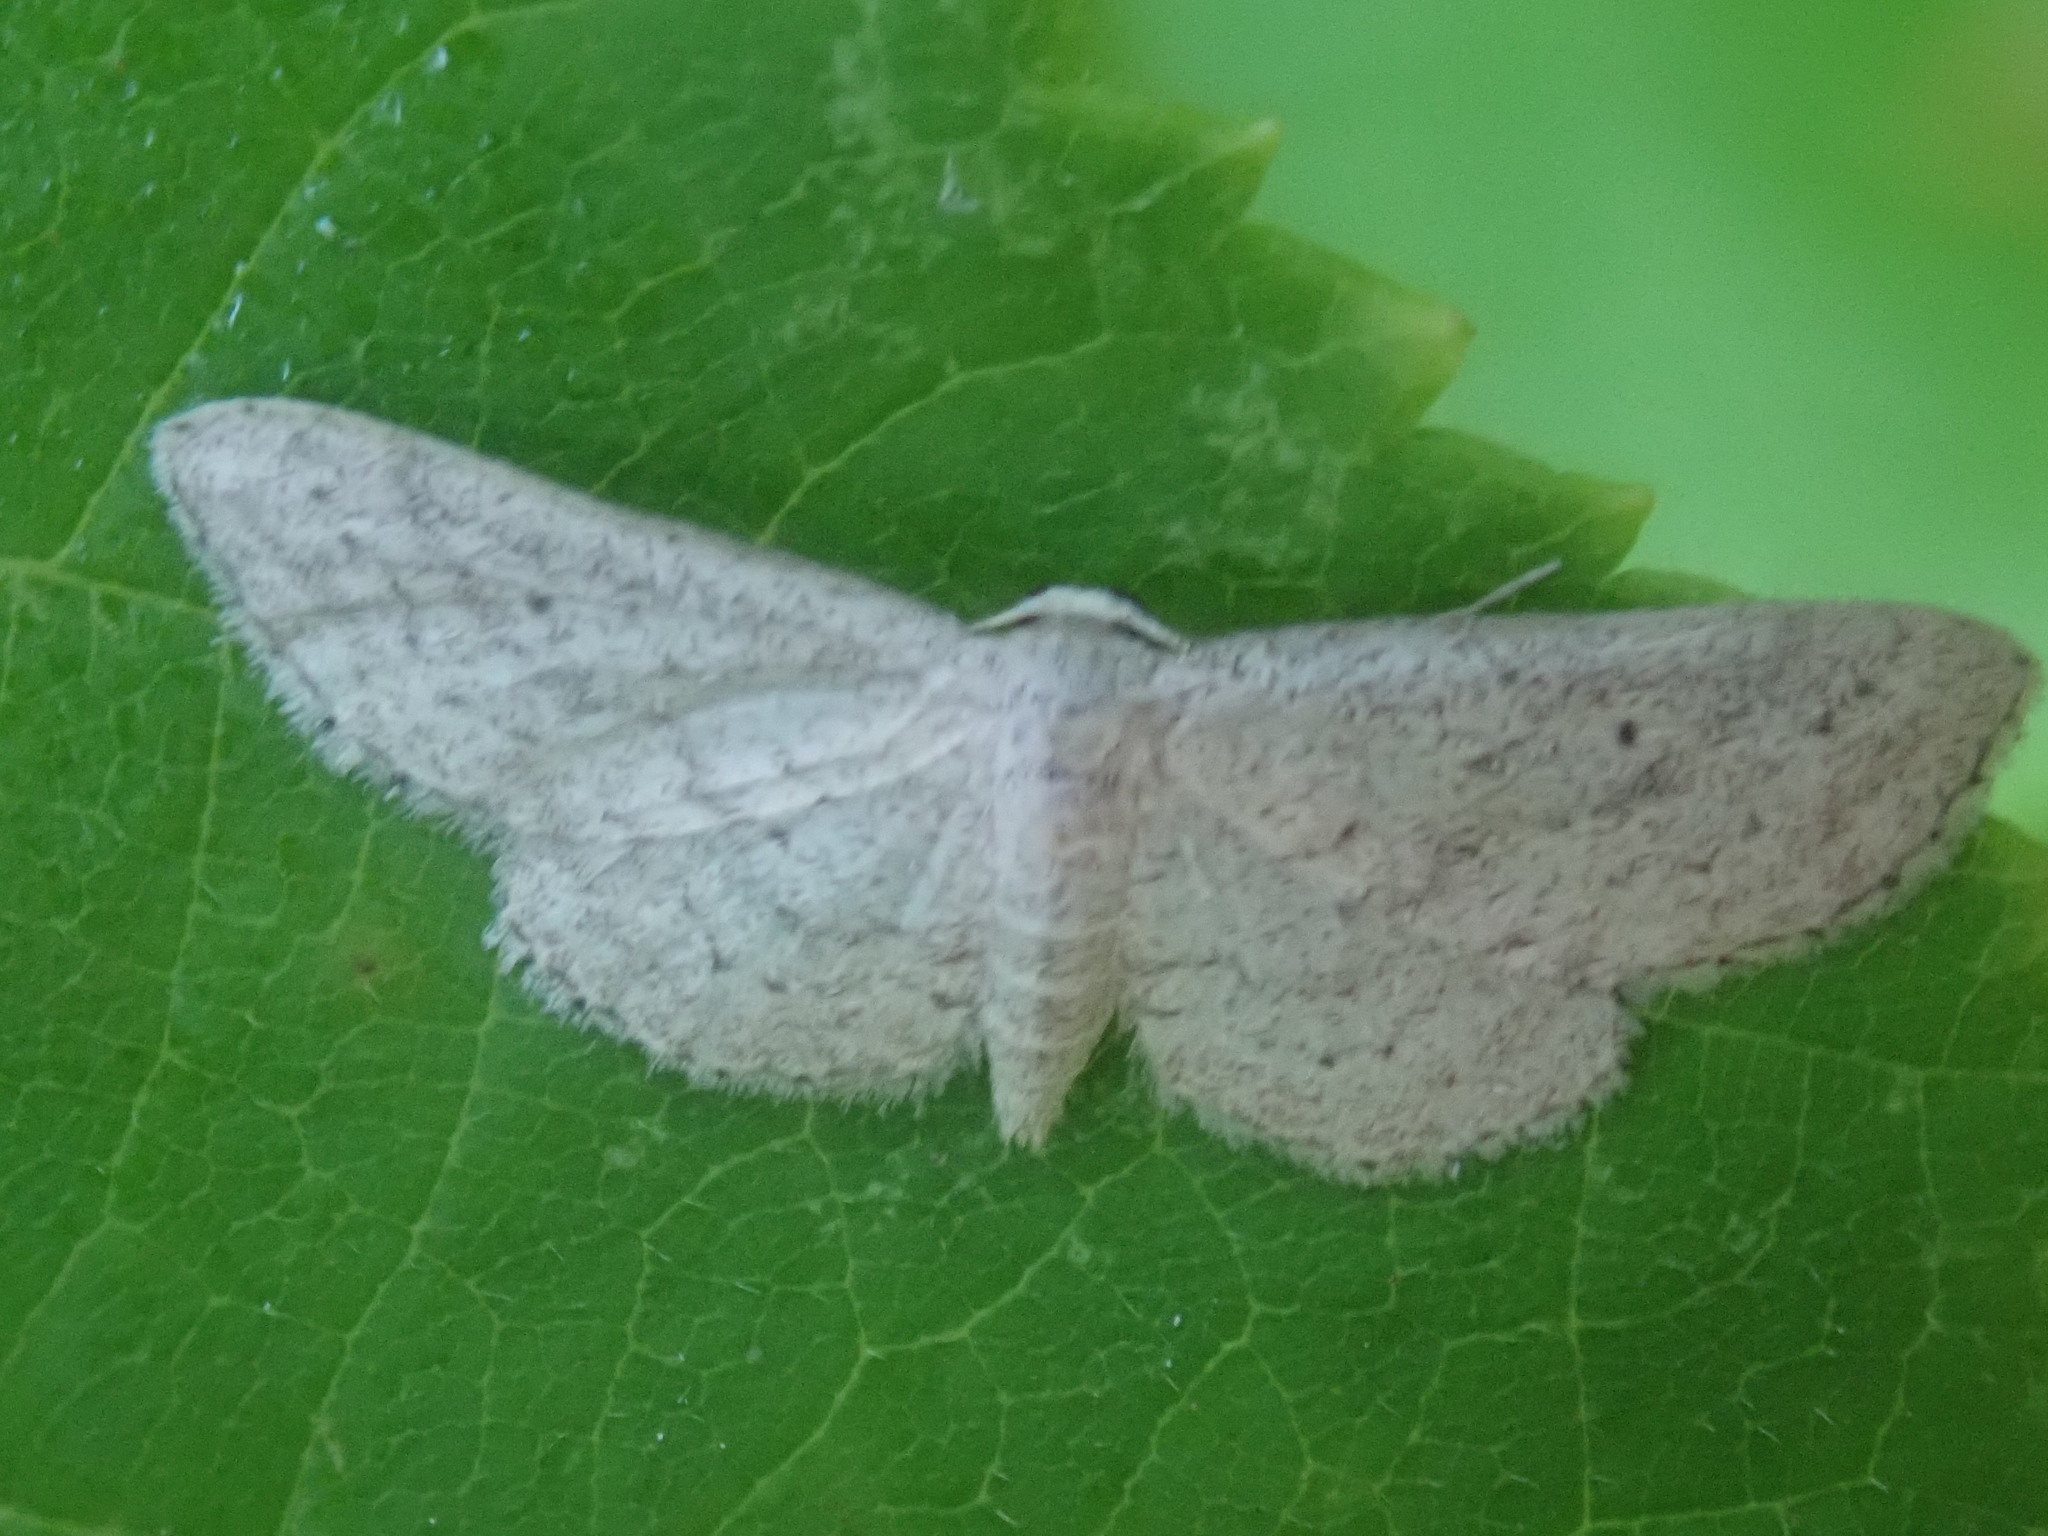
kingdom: Animalia
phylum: Arthropoda
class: Insecta
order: Lepidoptera
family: Geometridae
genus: Lobocleta
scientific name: Lobocleta ossularia
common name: Drab brown wave
